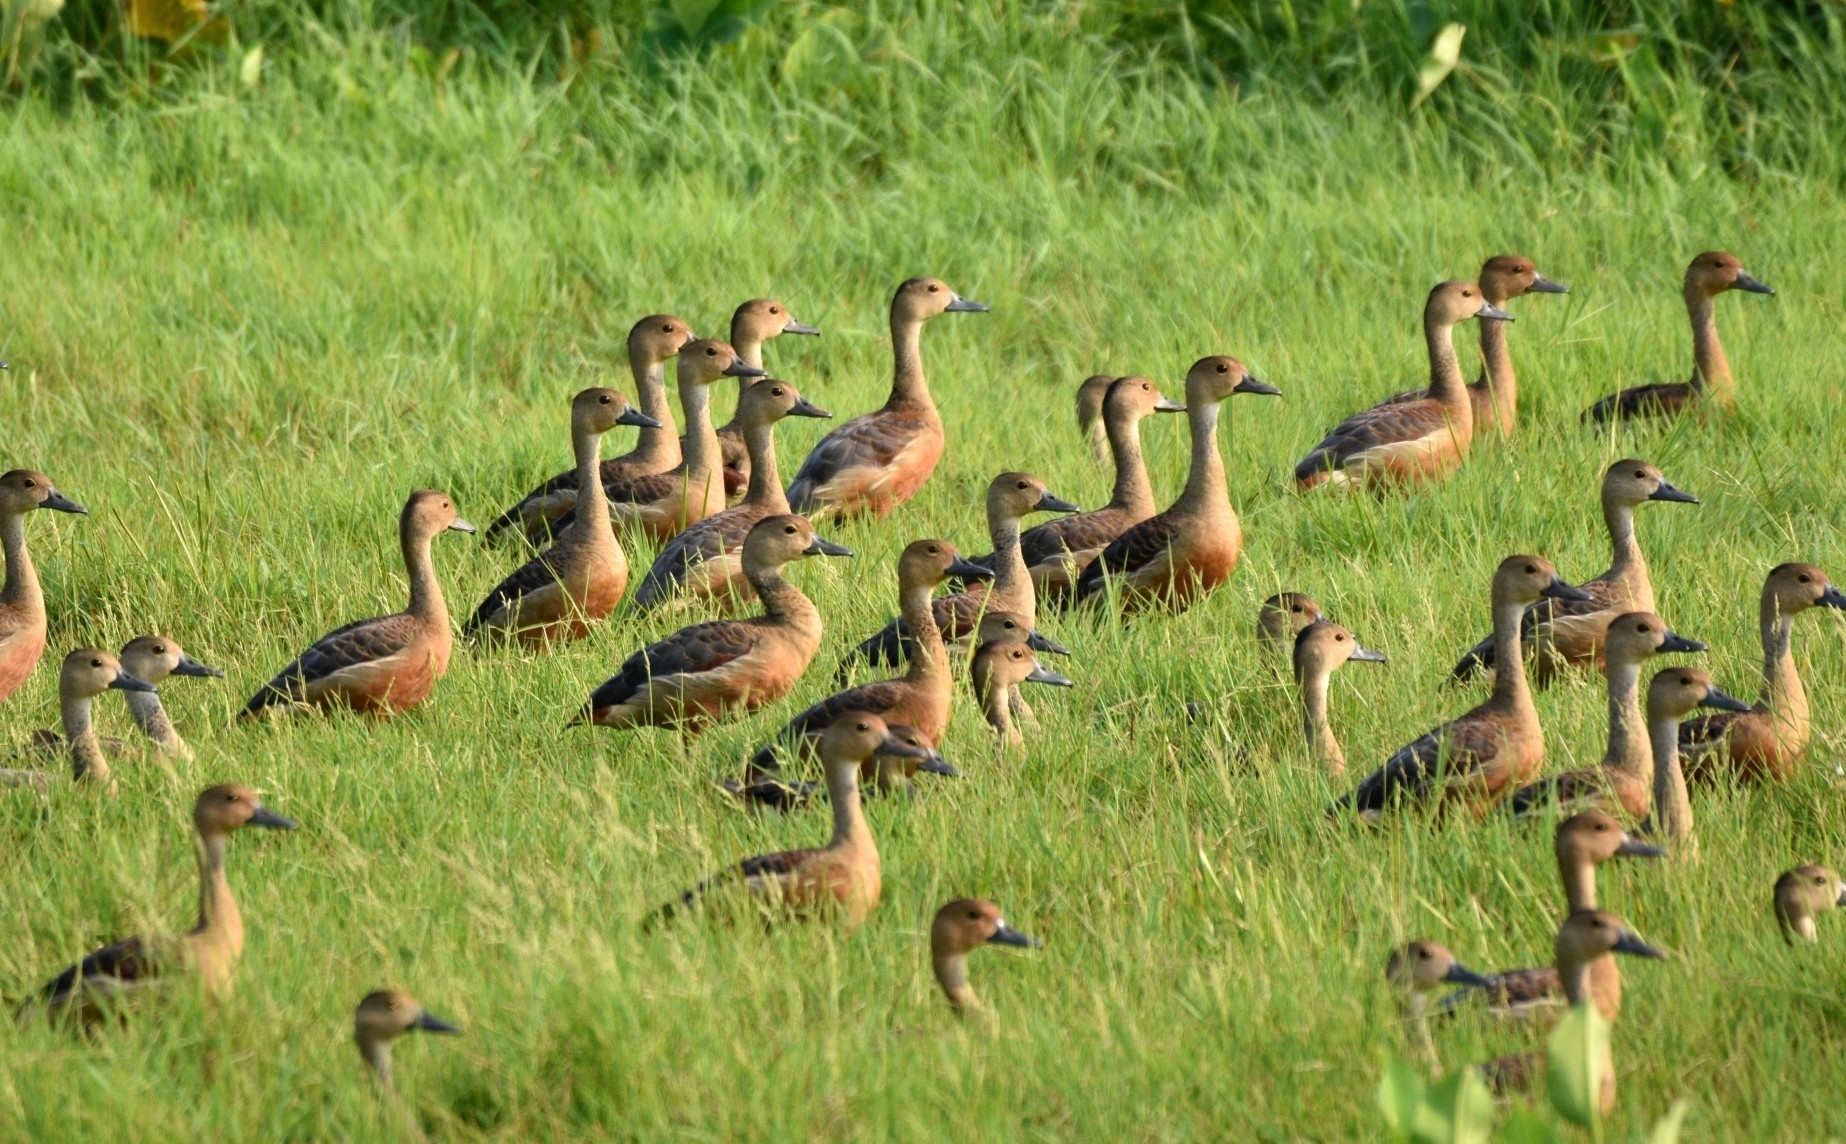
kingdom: Animalia
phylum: Chordata
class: Aves
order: Anseriformes
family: Anatidae
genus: Dendrocygna
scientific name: Dendrocygna javanica
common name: Lesser whistling-duck
